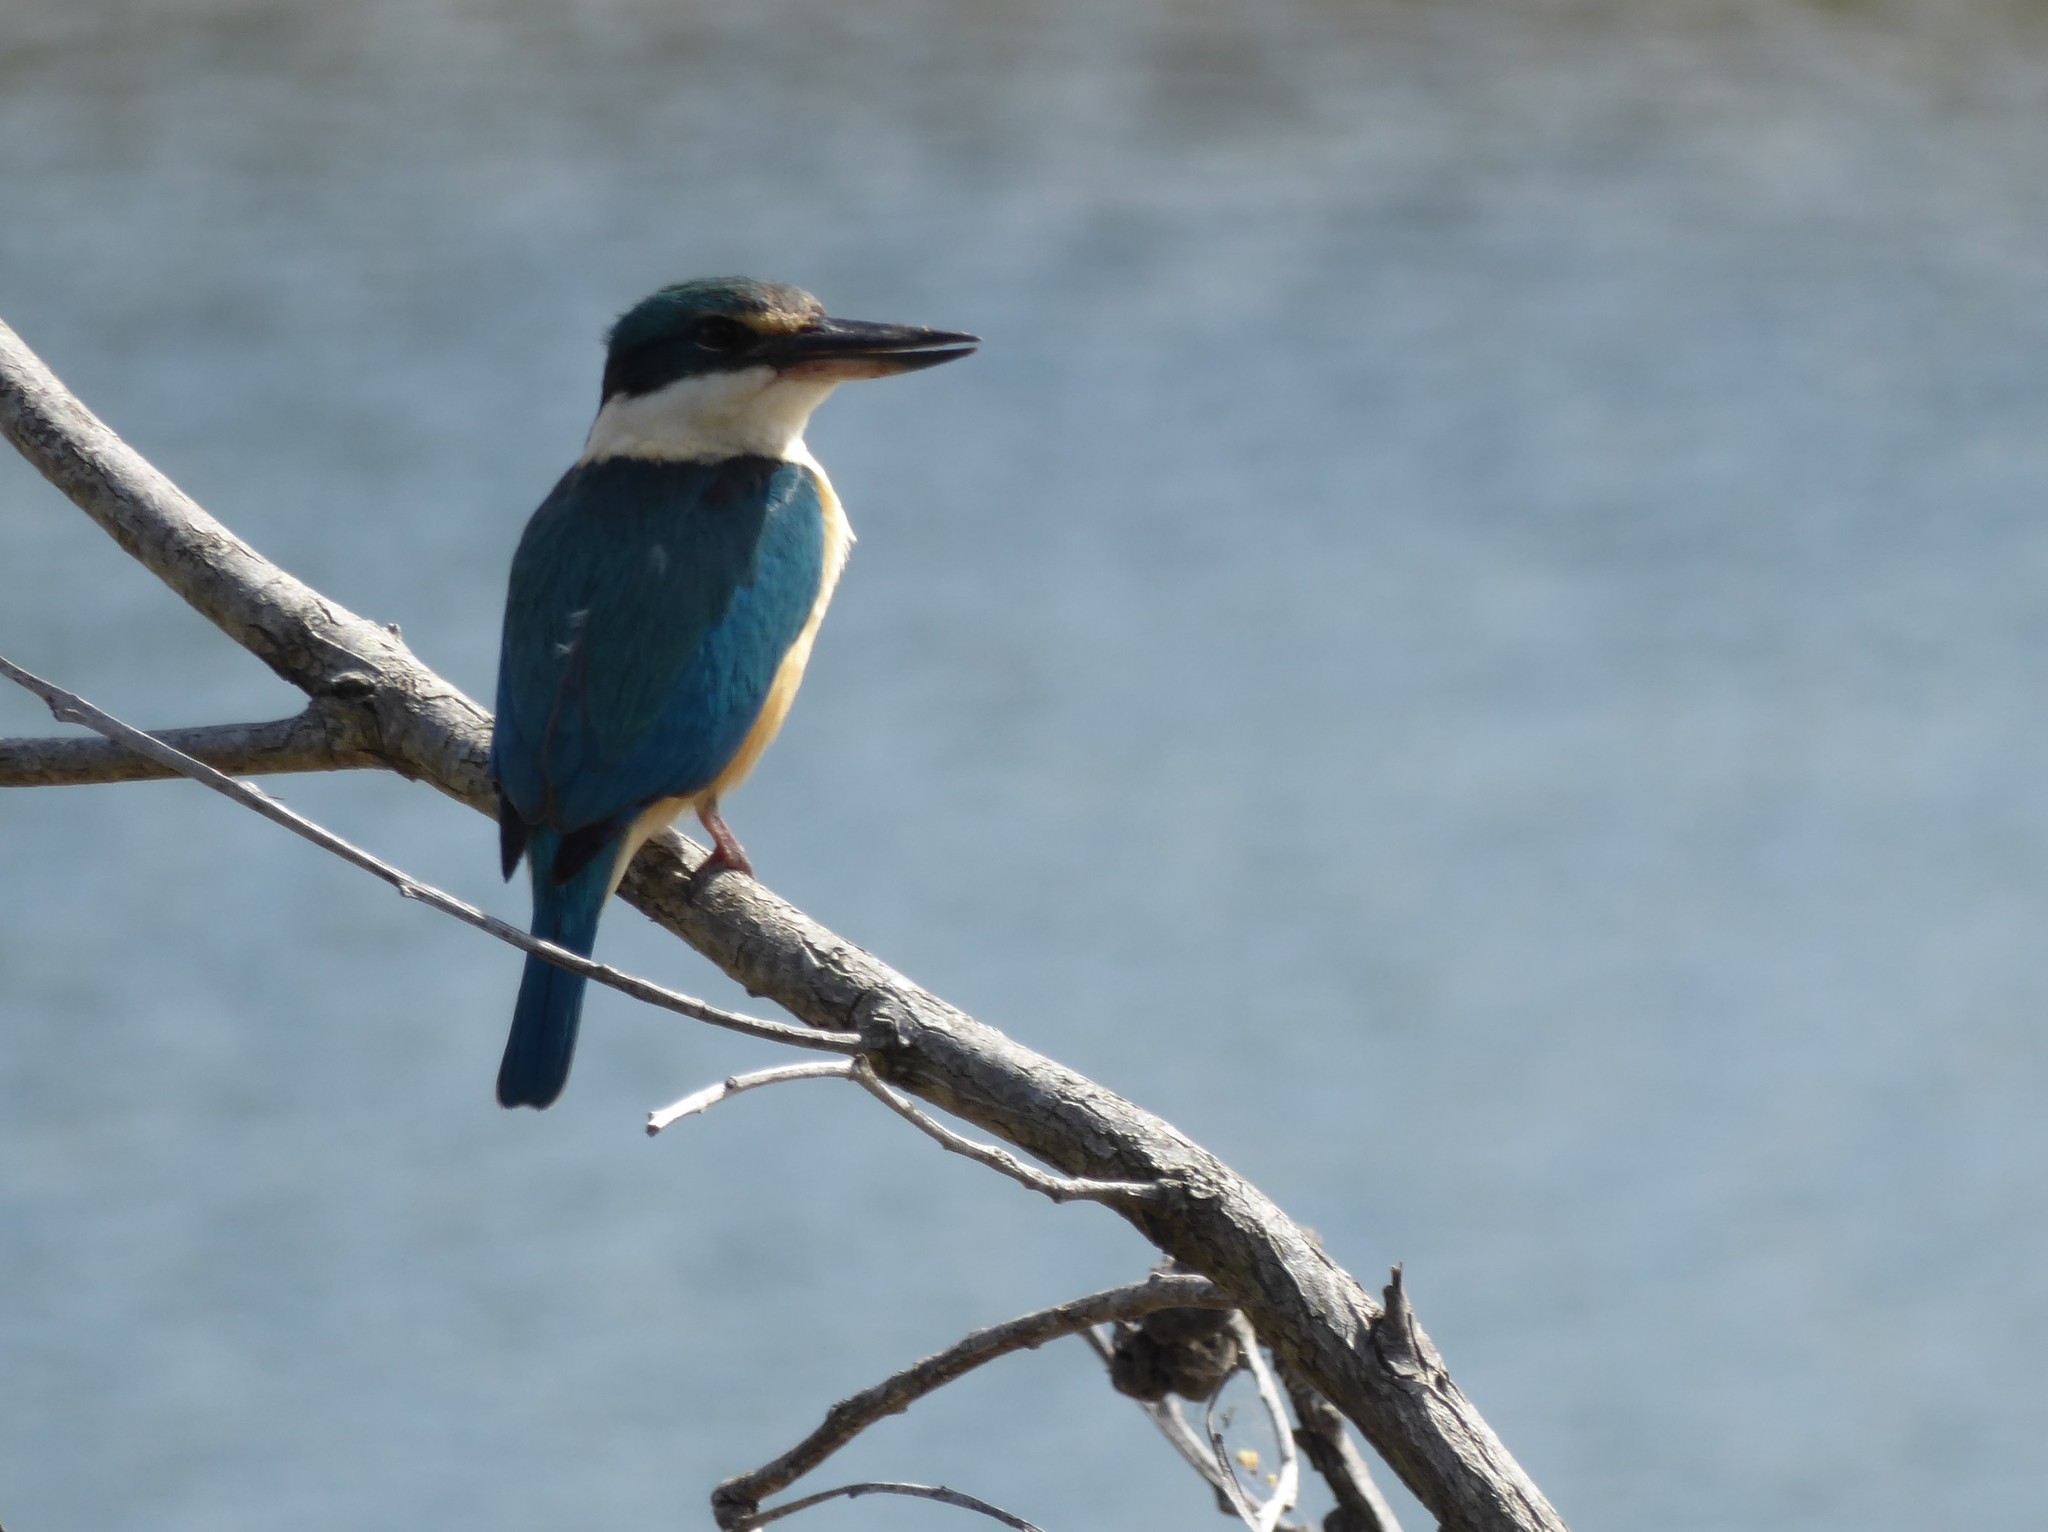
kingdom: Animalia
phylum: Chordata
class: Aves
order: Coraciiformes
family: Alcedinidae
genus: Todiramphus
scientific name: Todiramphus sanctus
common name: Sacred kingfisher
